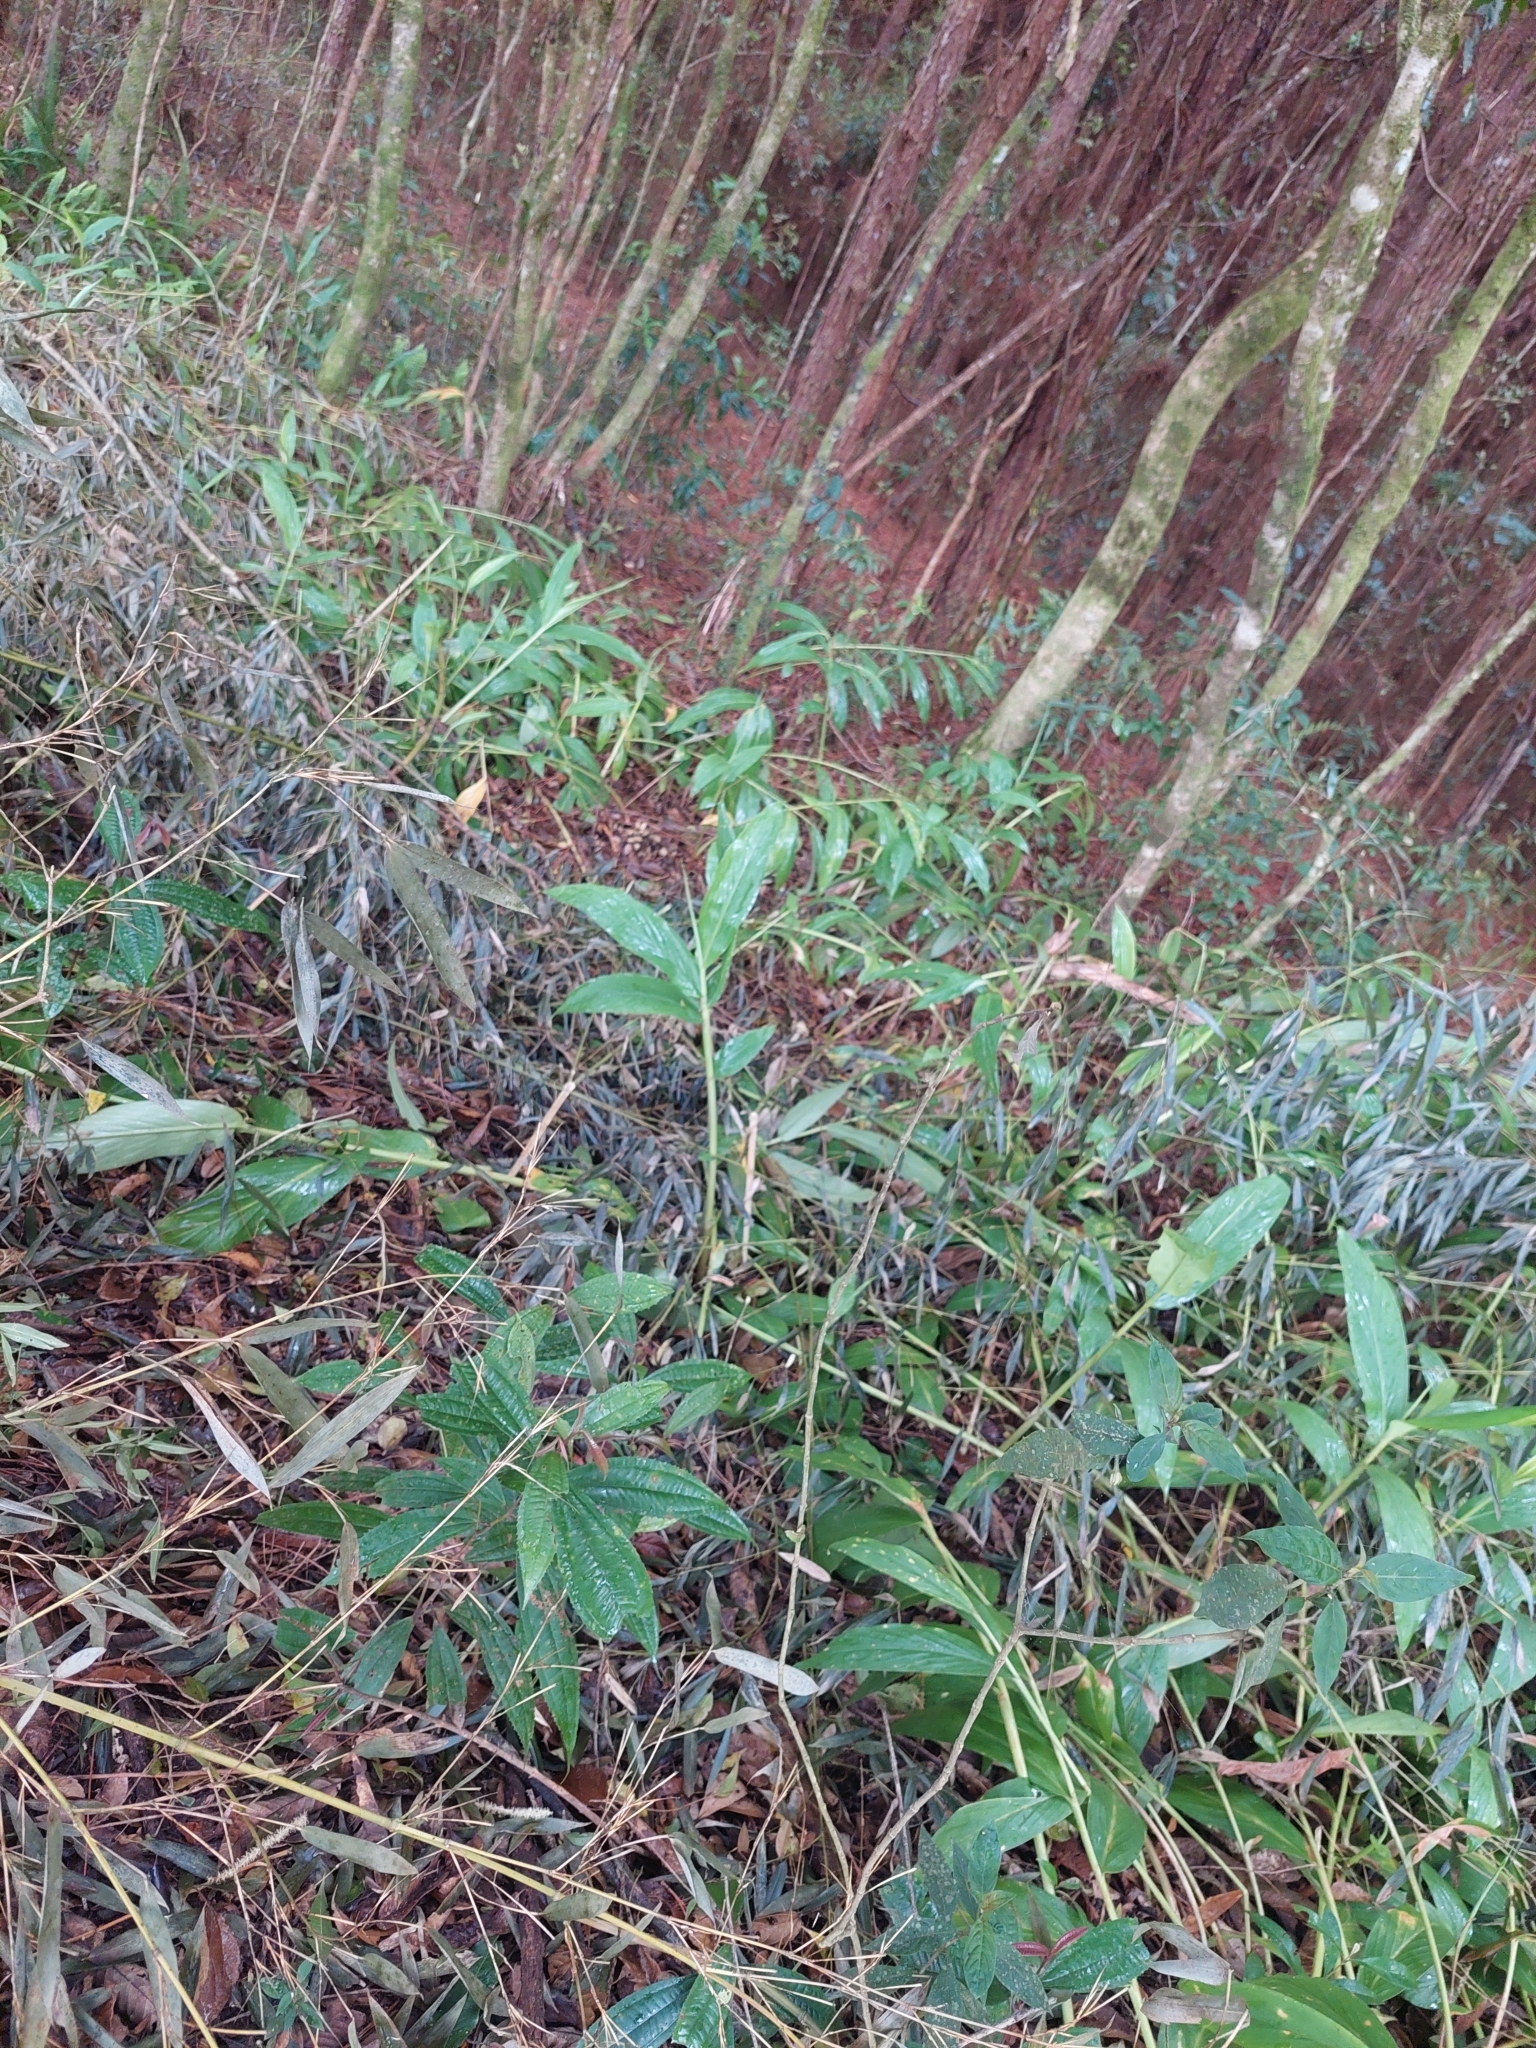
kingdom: Plantae
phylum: Tracheophyta
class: Liliopsida
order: Zingiberales
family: Zingiberaceae
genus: Hedychium
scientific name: Hedychium coronarium
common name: White garland-lily
